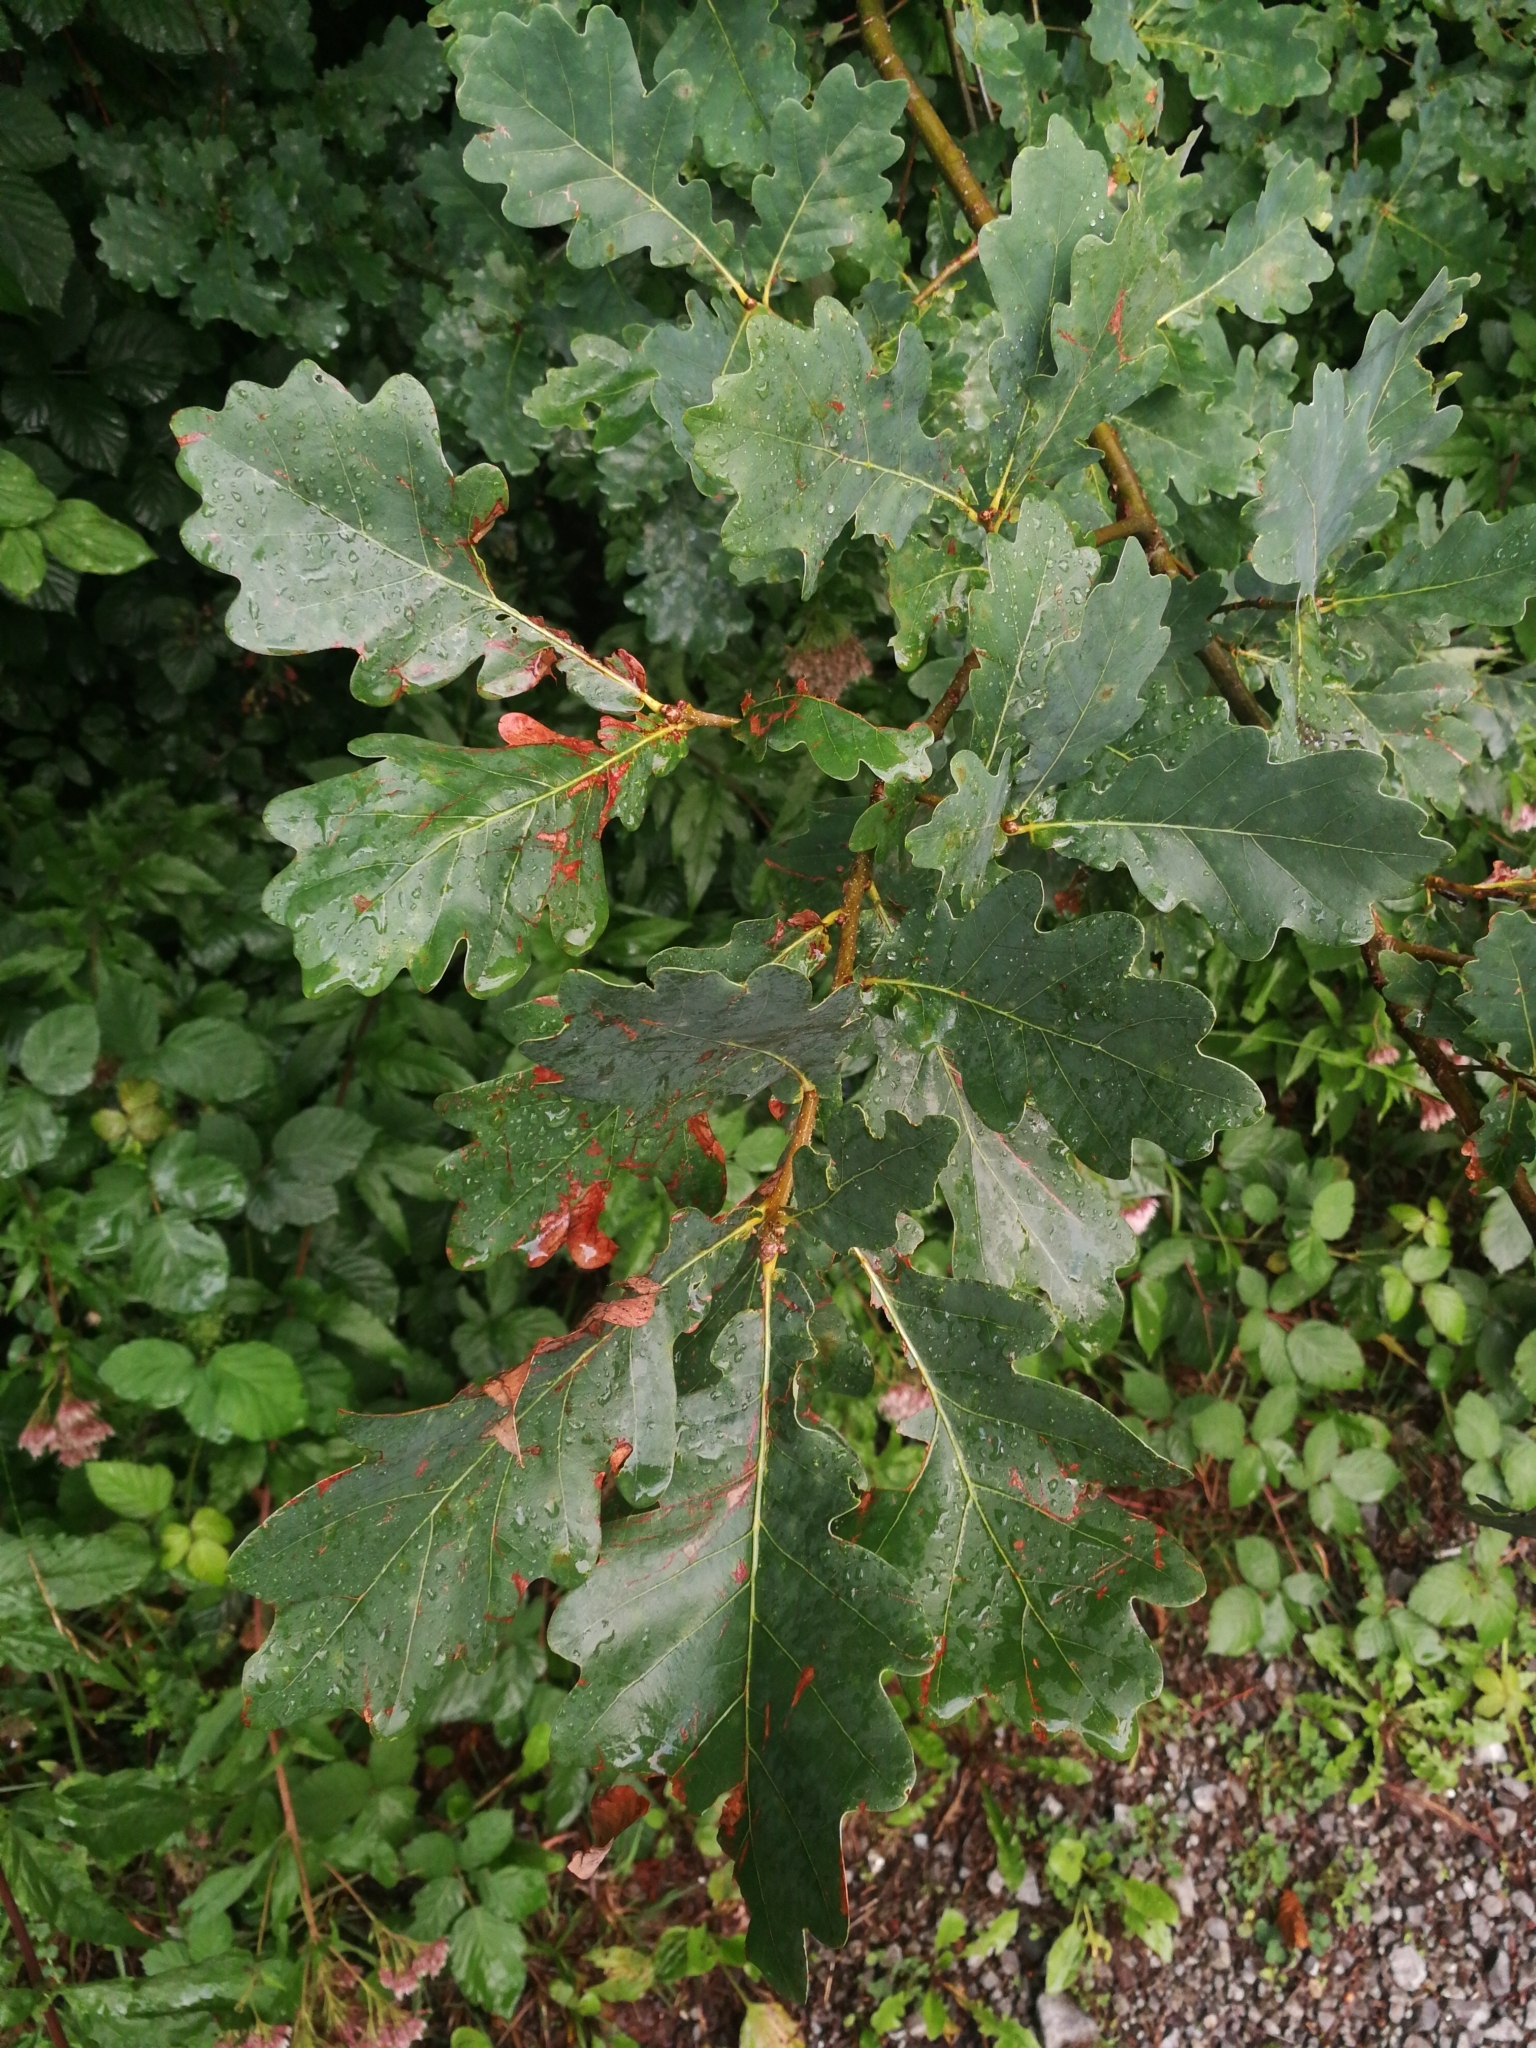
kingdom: Plantae
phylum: Tracheophyta
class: Magnoliopsida
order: Fagales
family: Fagaceae
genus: Quercus
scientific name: Quercus robur
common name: Pedunculate oak
